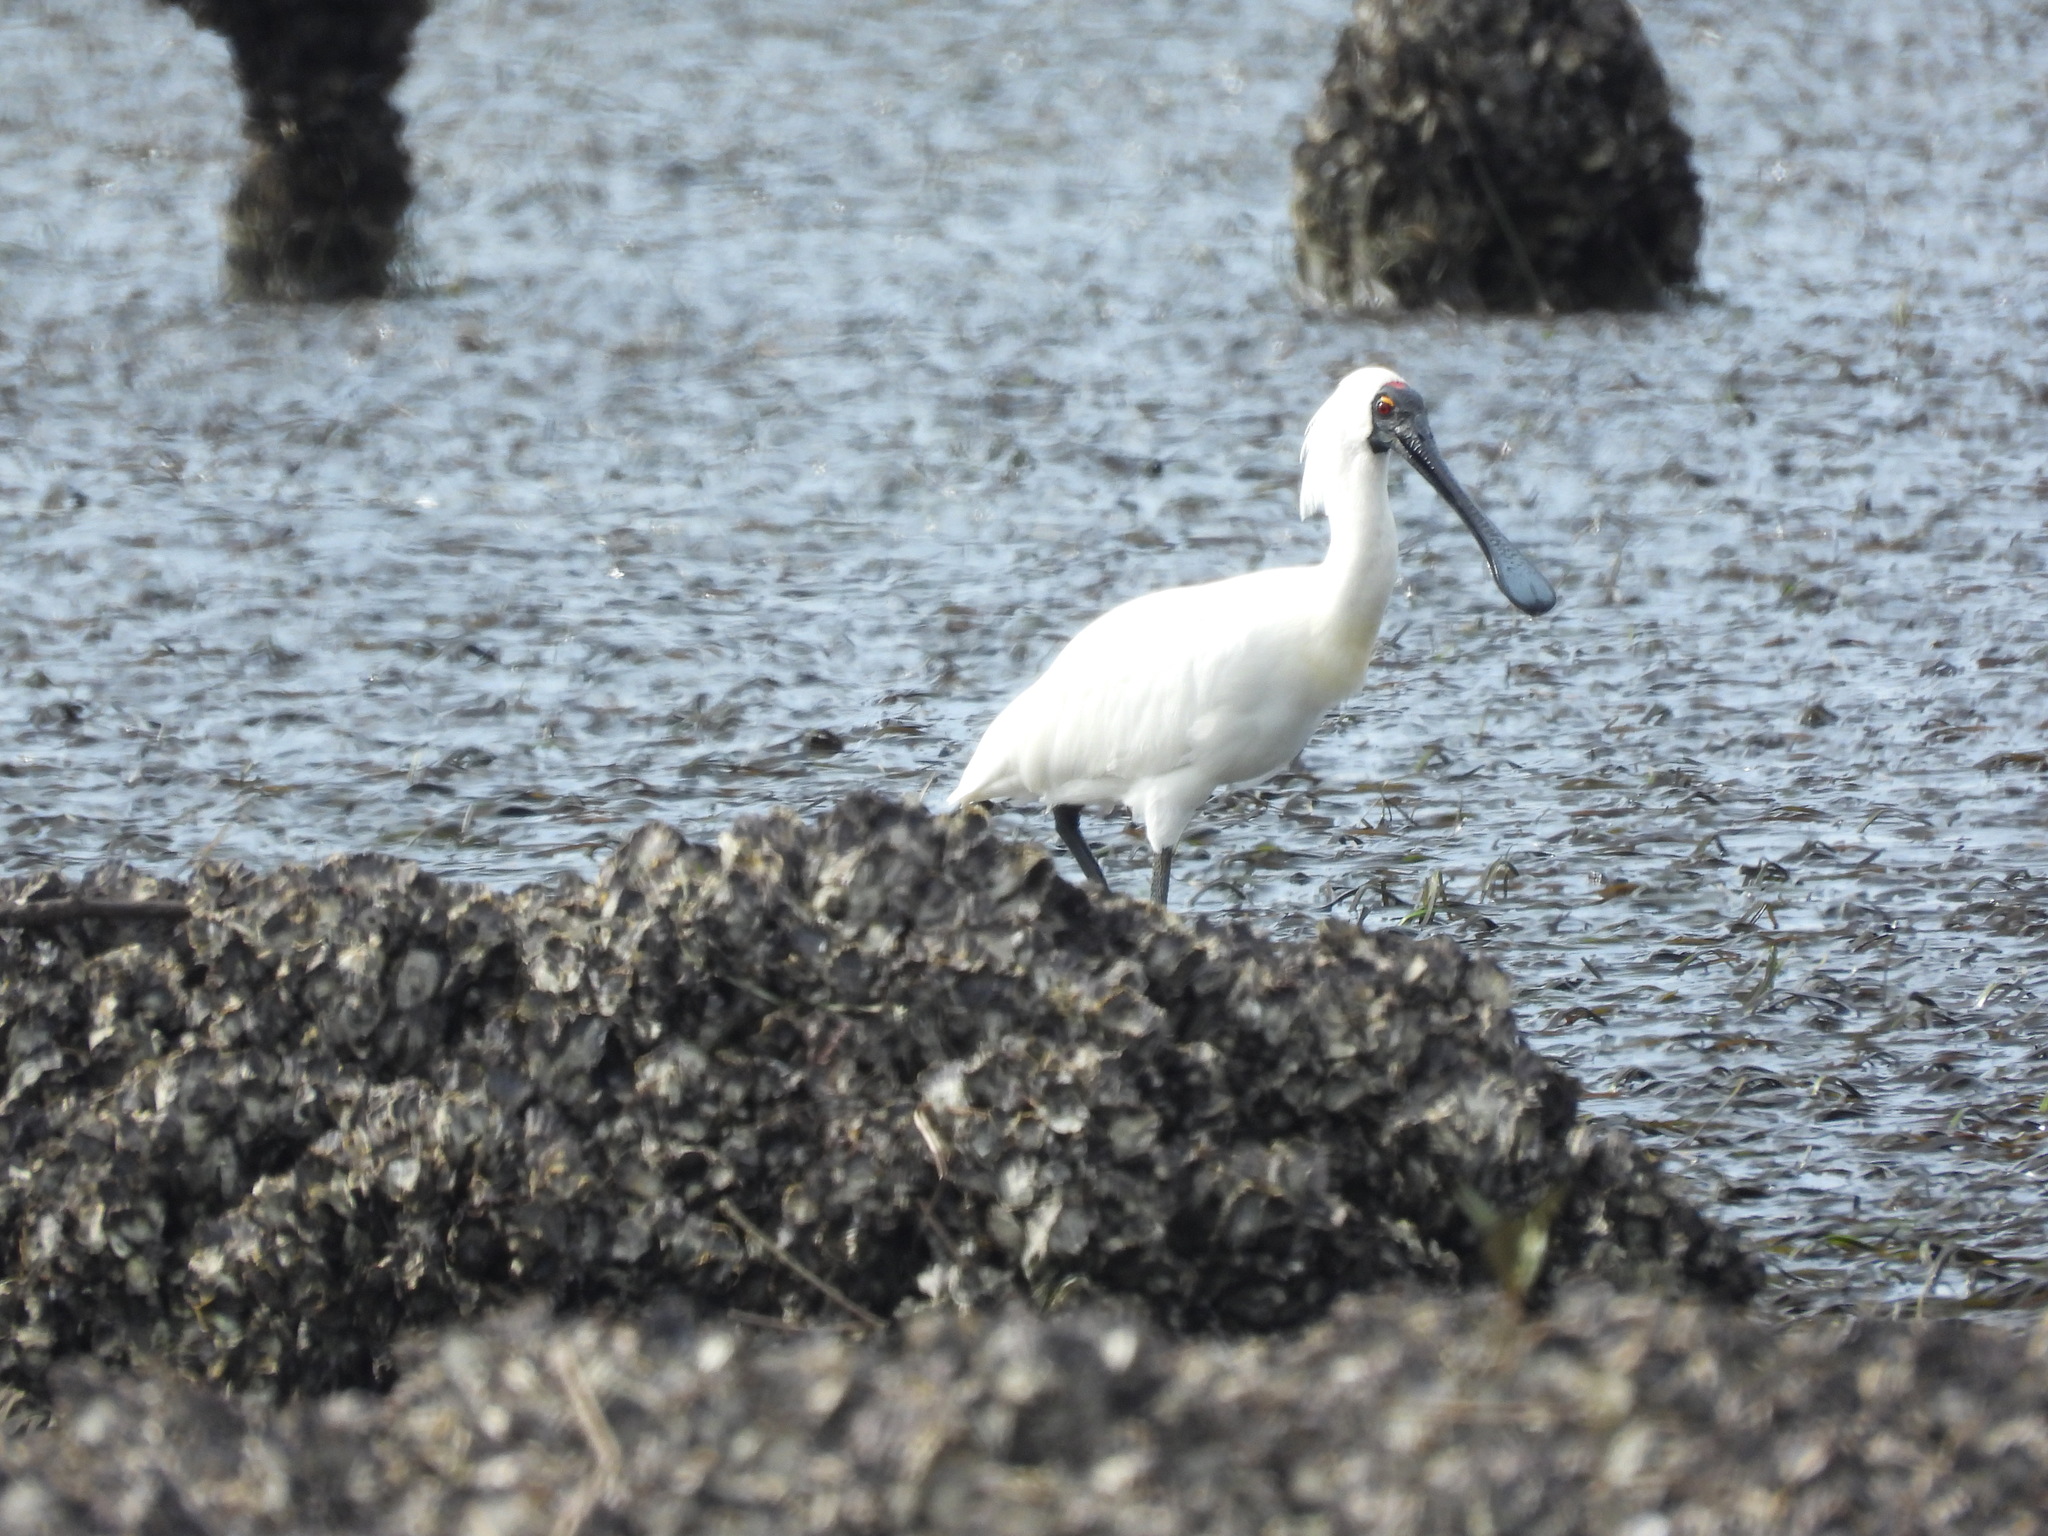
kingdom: Animalia
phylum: Chordata
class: Aves
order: Pelecaniformes
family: Threskiornithidae
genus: Platalea
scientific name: Platalea regia
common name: Royal spoonbill
